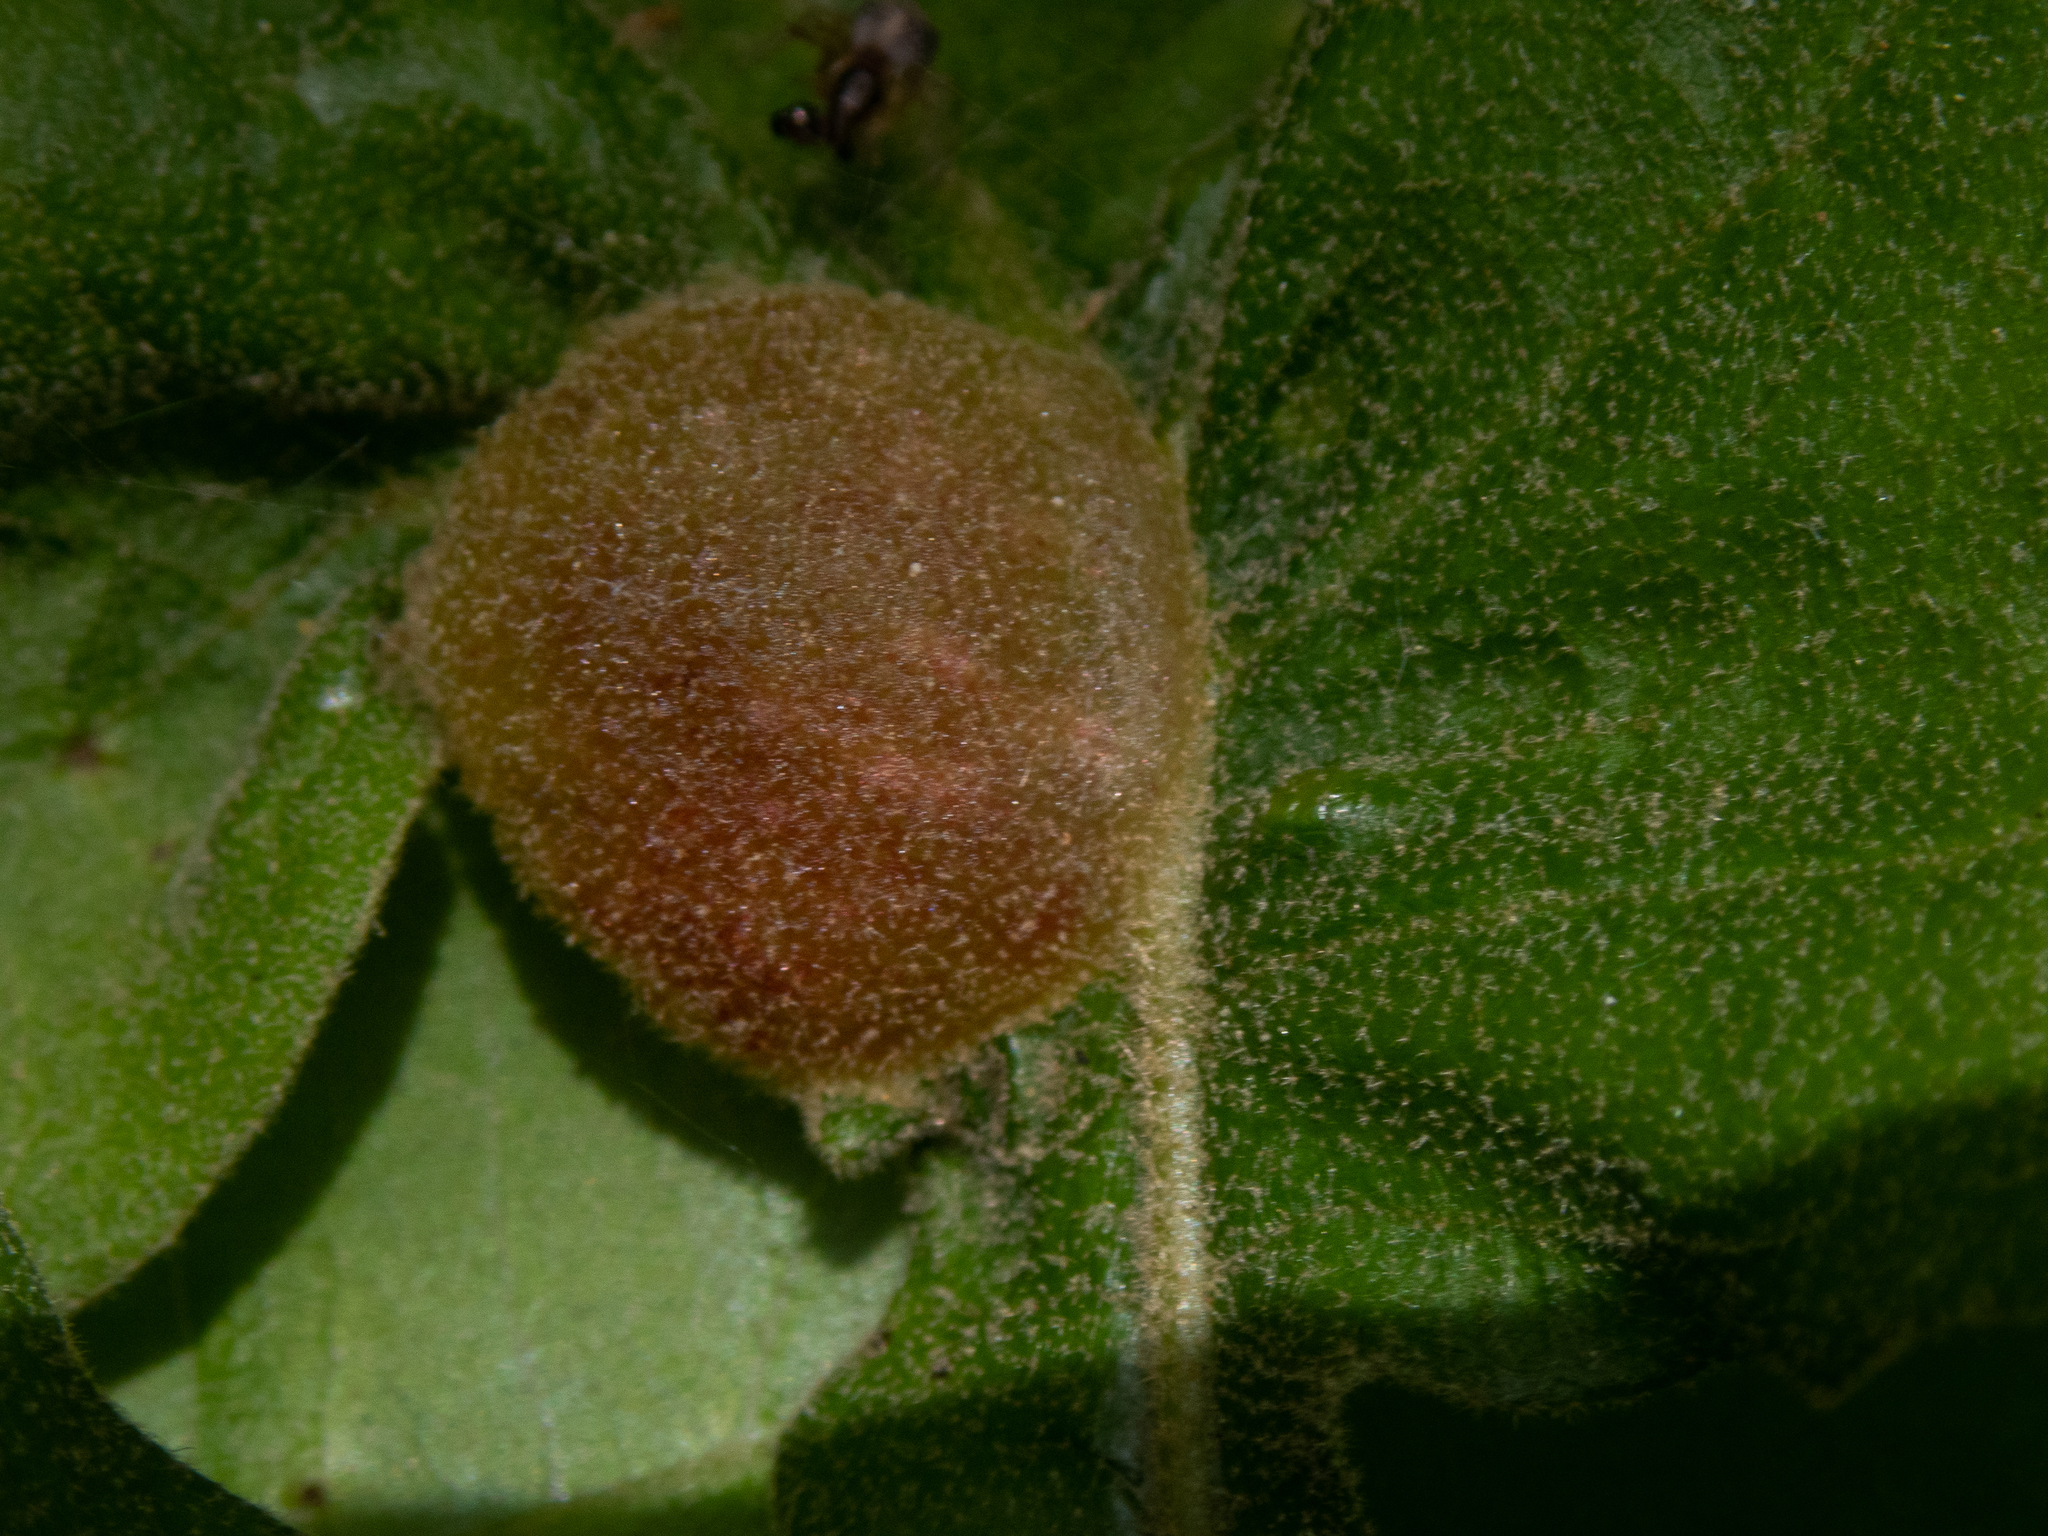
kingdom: Animalia
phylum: Arthropoda
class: Insecta
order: Hymenoptera
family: Cynipidae
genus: Dryocosmus
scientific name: Dryocosmus quercuspalustris
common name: Succulent oak gall wasp
